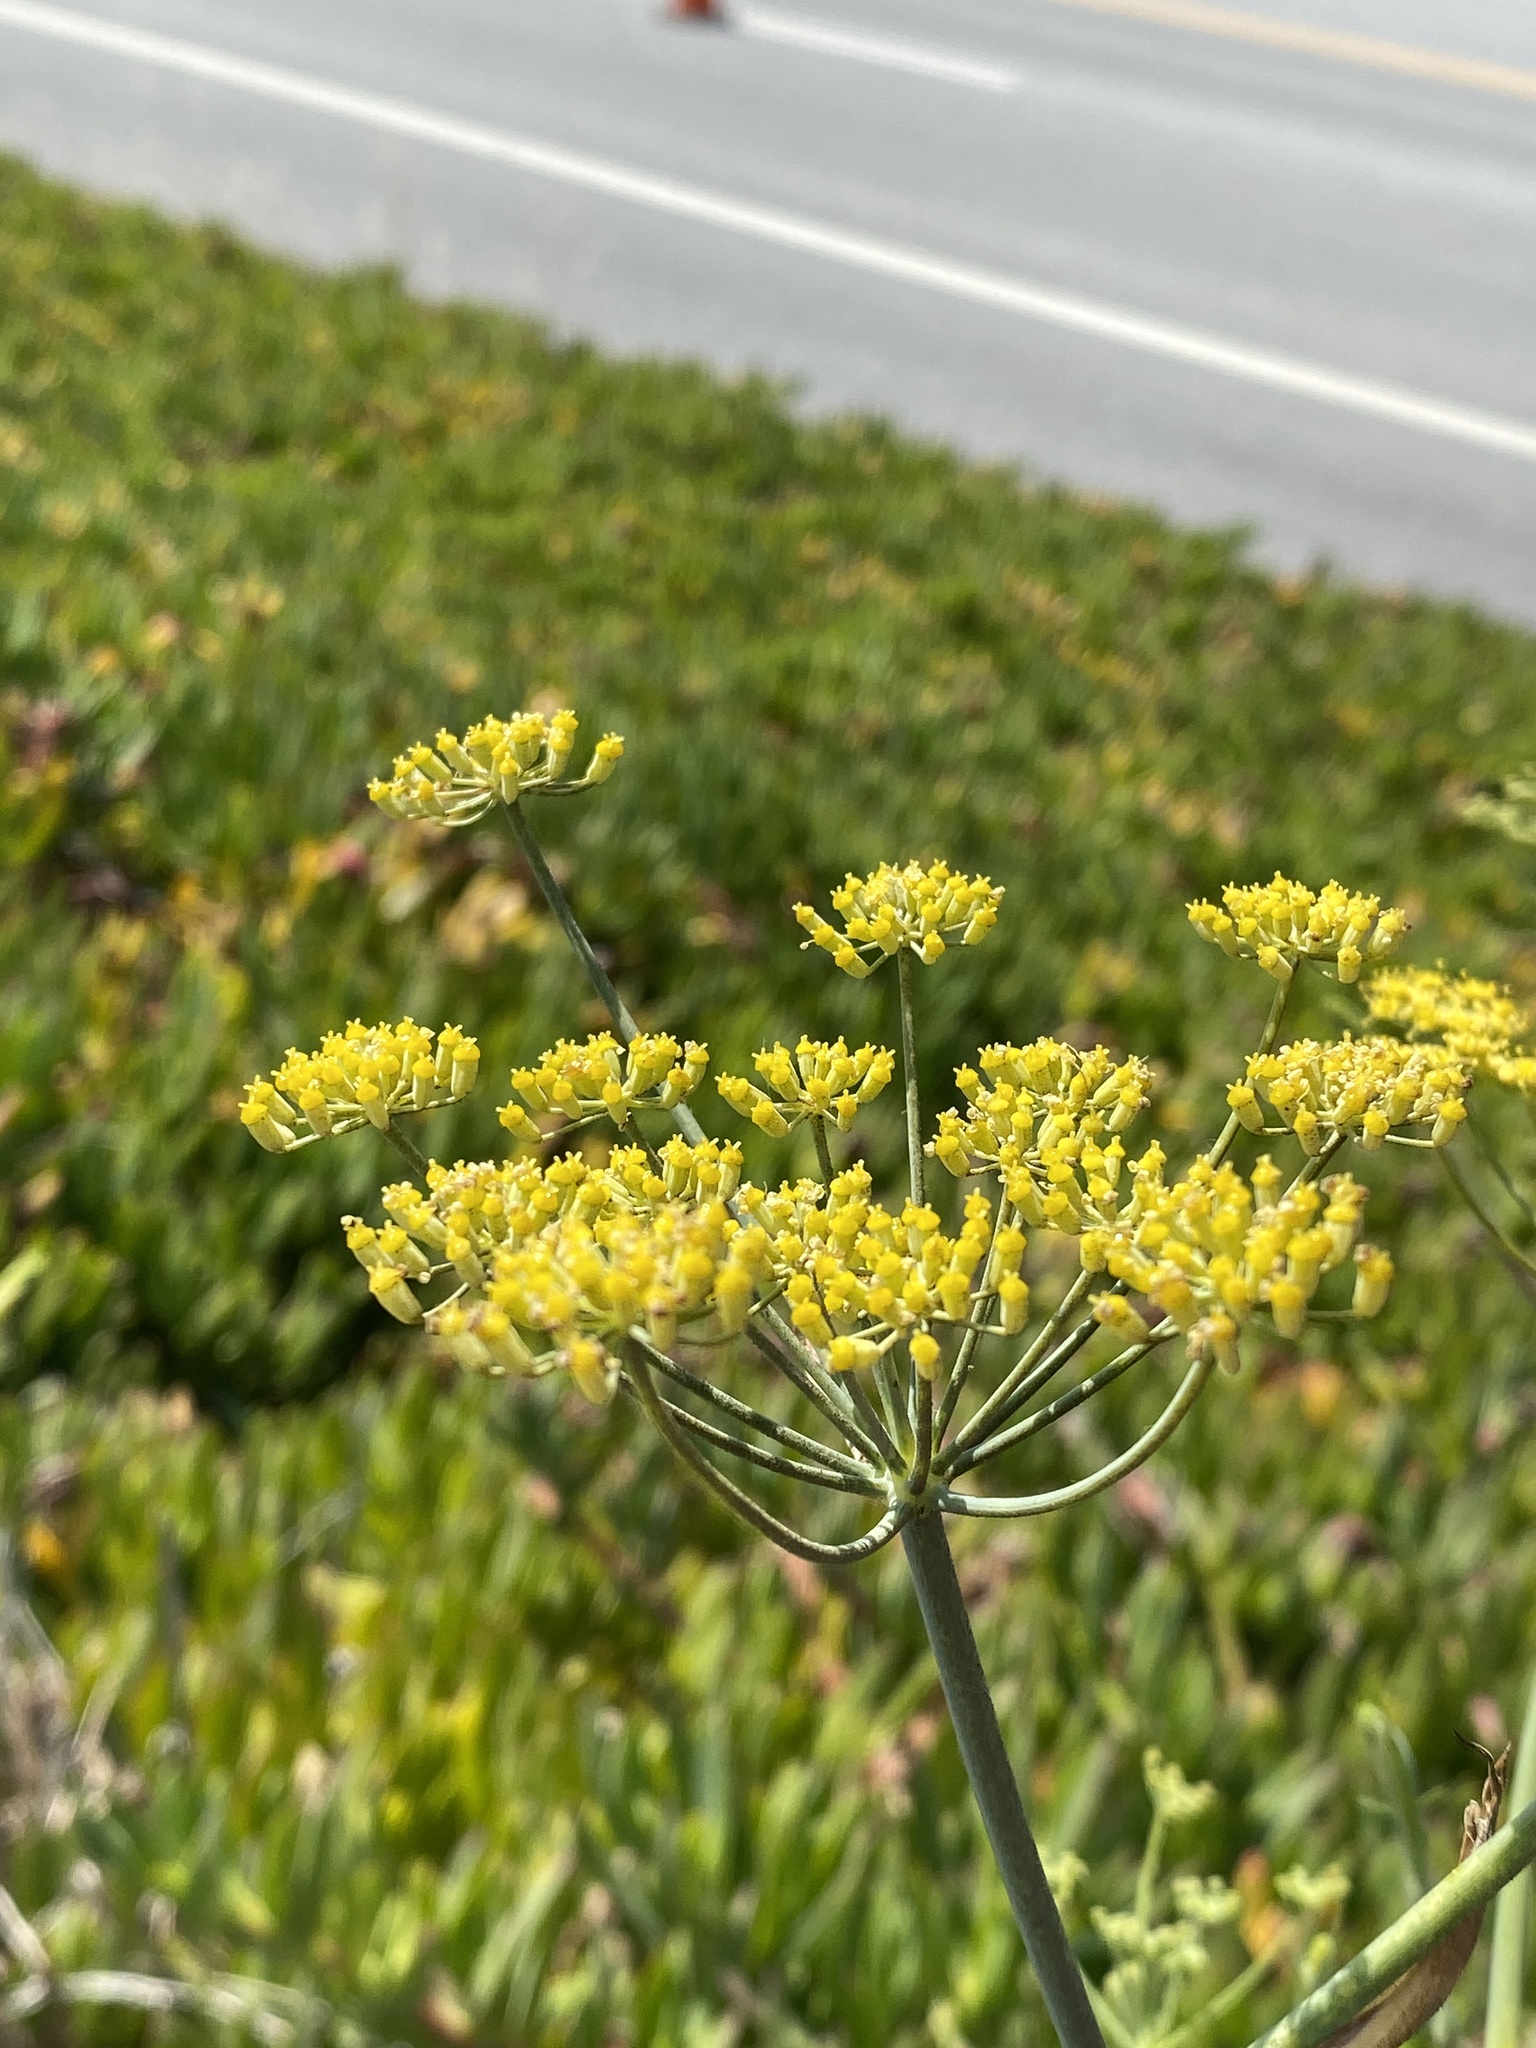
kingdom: Plantae
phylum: Tracheophyta
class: Magnoliopsida
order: Apiales
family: Apiaceae
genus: Foeniculum
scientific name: Foeniculum vulgare
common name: Fennel
